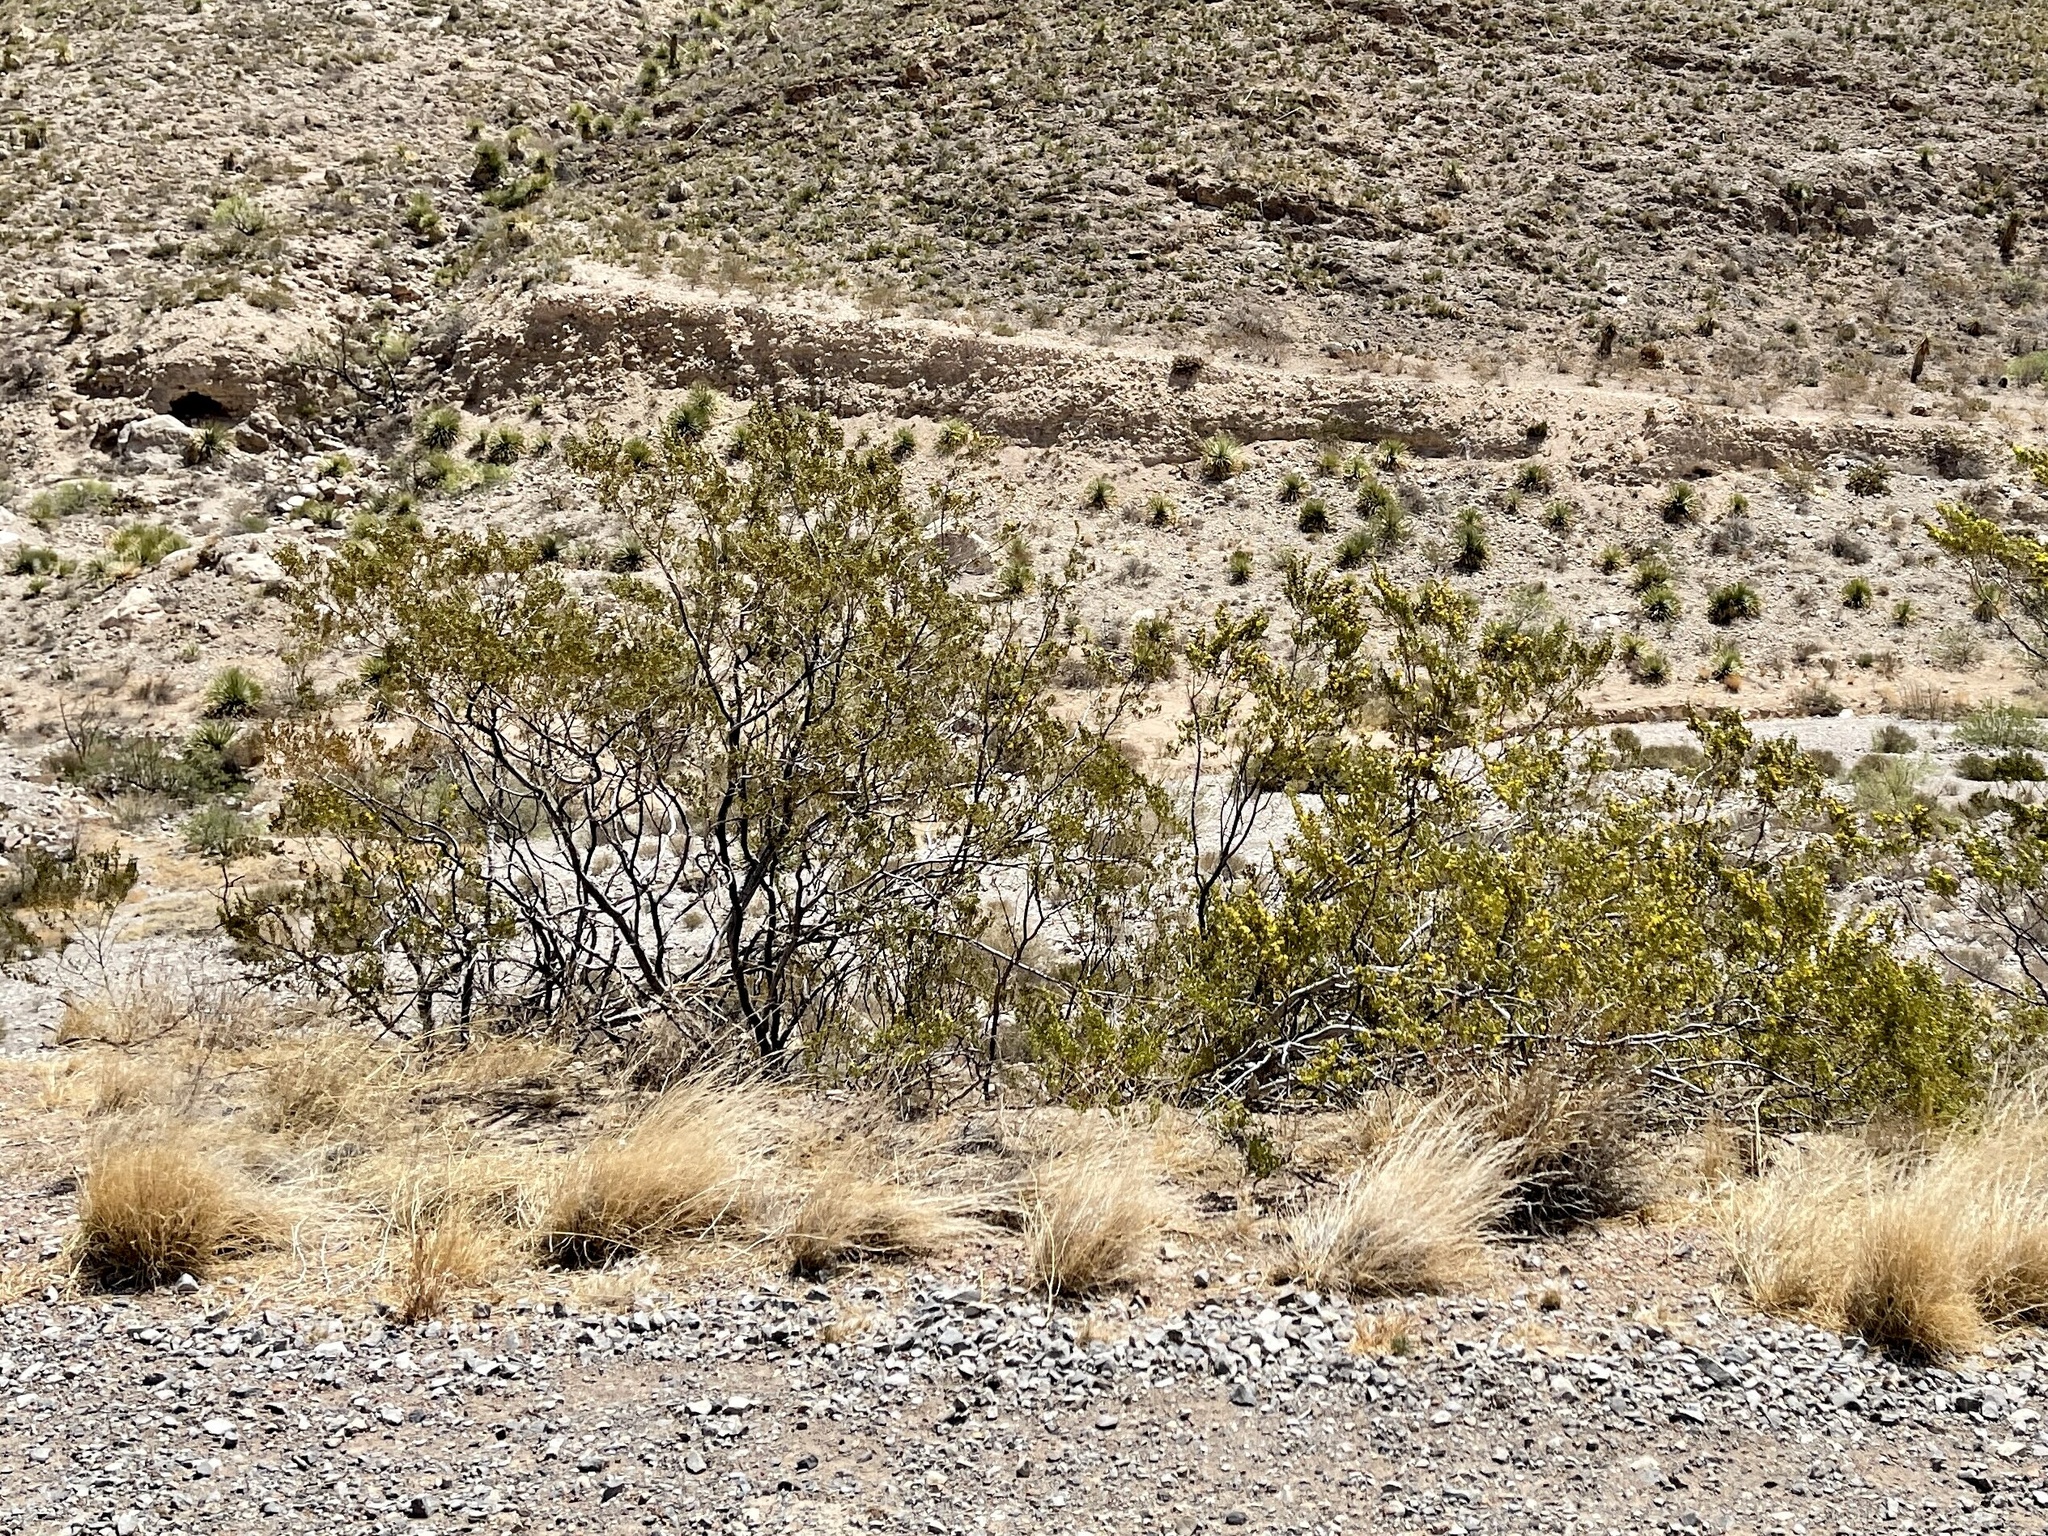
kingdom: Plantae
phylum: Tracheophyta
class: Magnoliopsida
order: Zygophyllales
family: Zygophyllaceae
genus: Larrea
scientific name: Larrea tridentata
